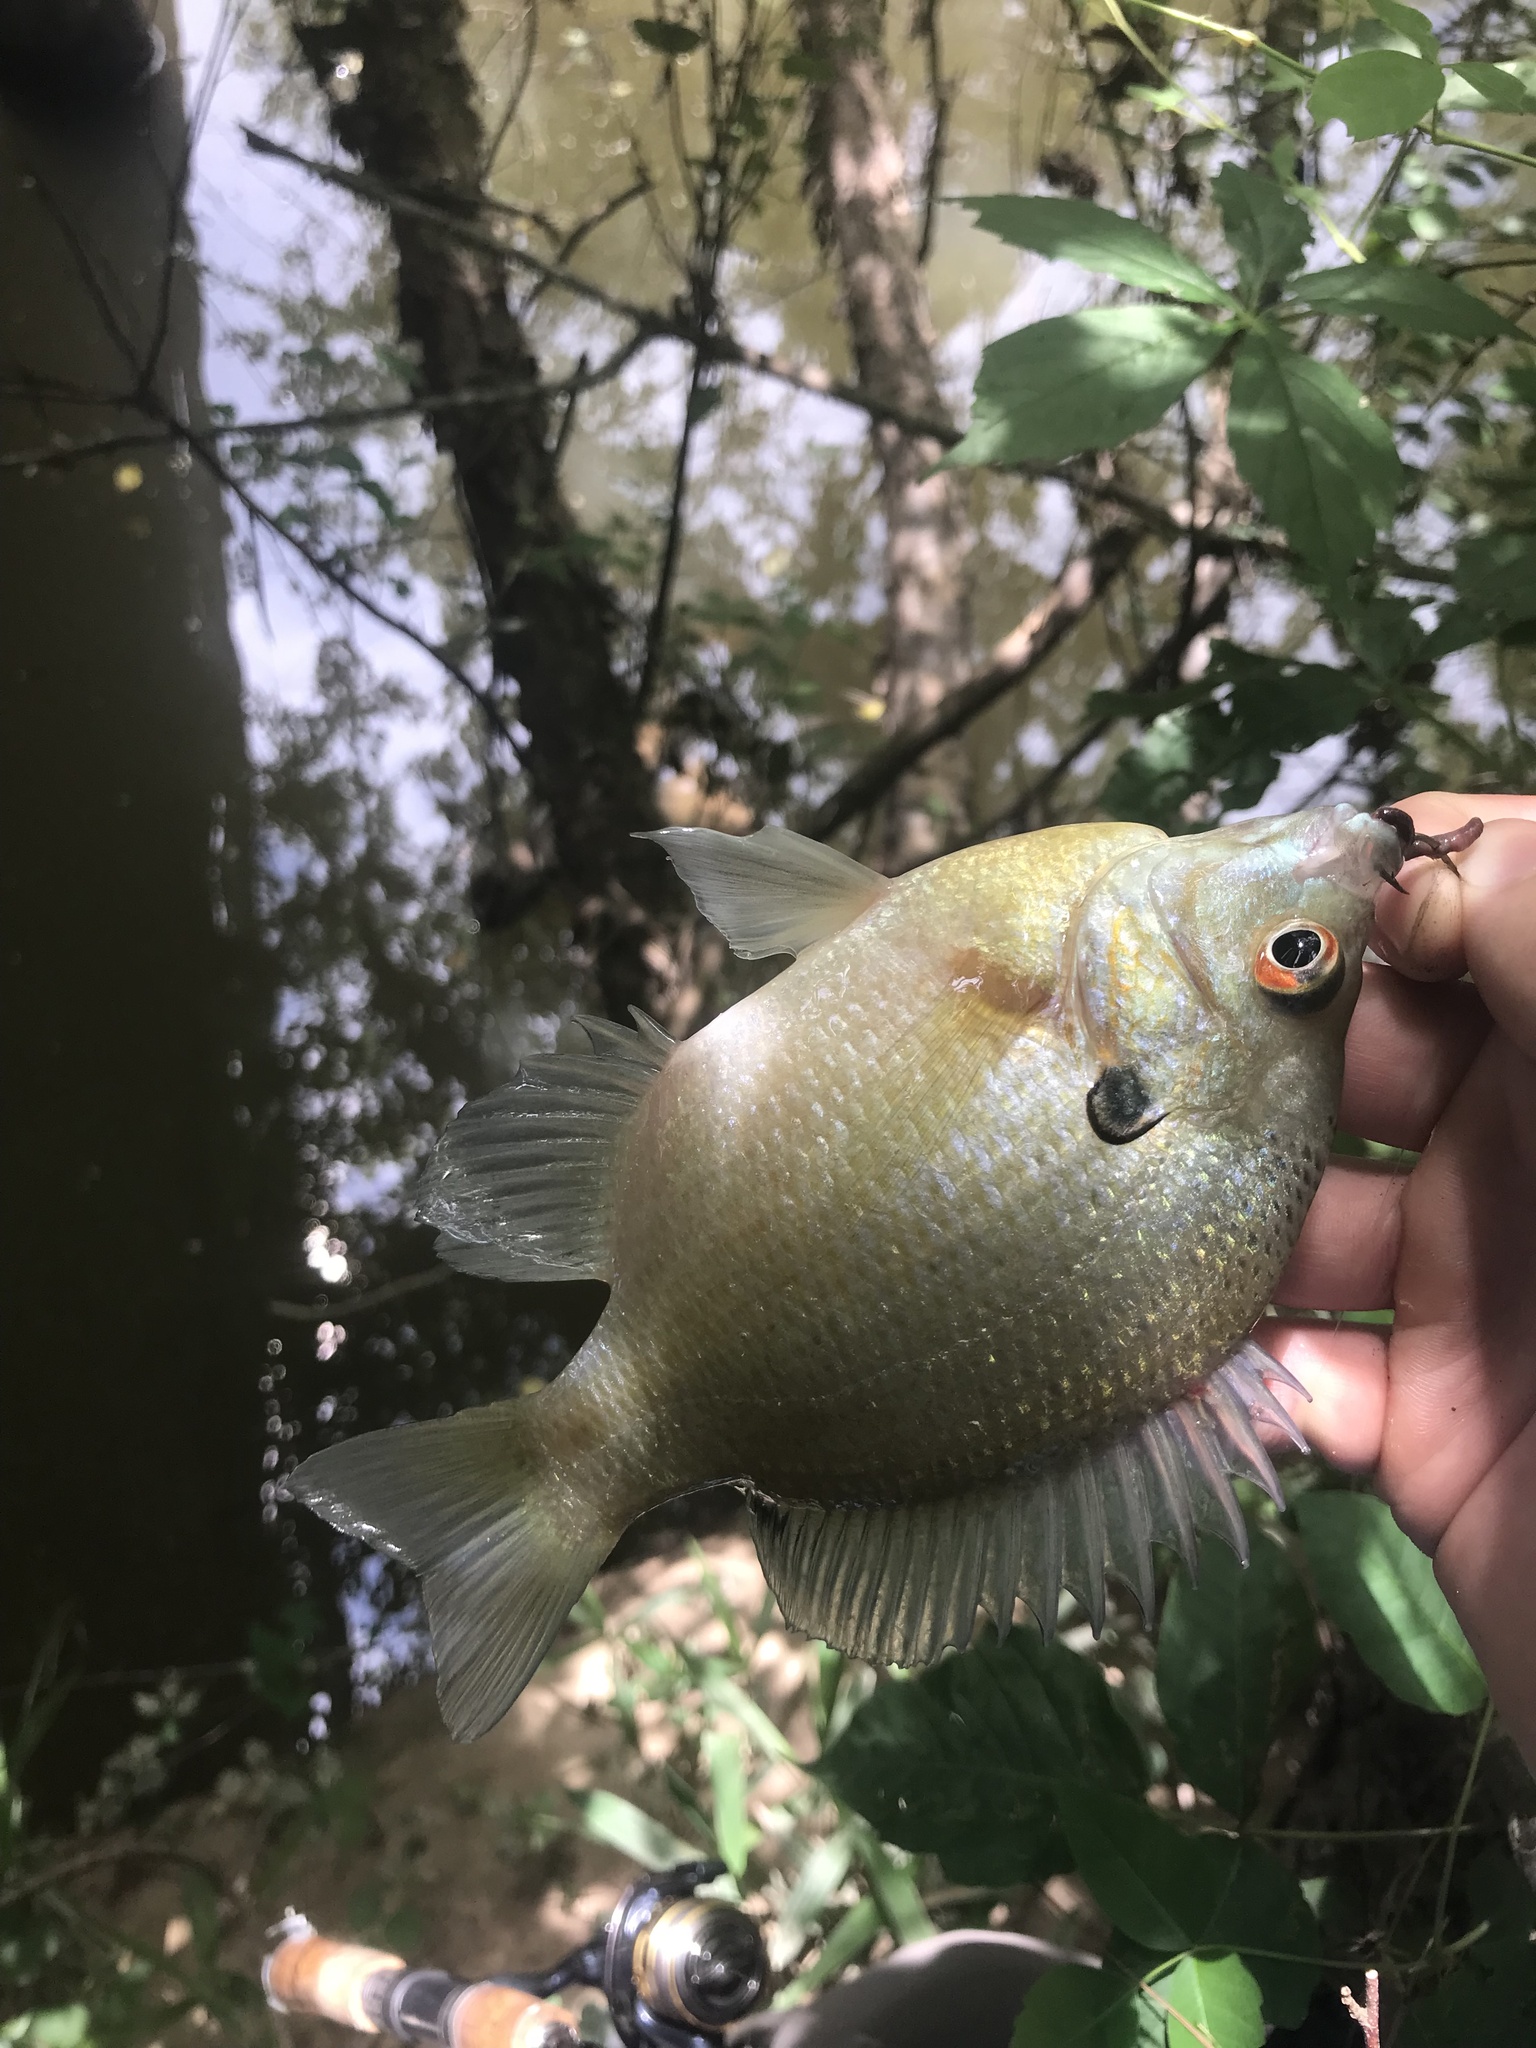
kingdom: Animalia
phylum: Chordata
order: Perciformes
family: Centrarchidae
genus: Lepomis
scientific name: Lepomis macrochirus
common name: Bluegill
